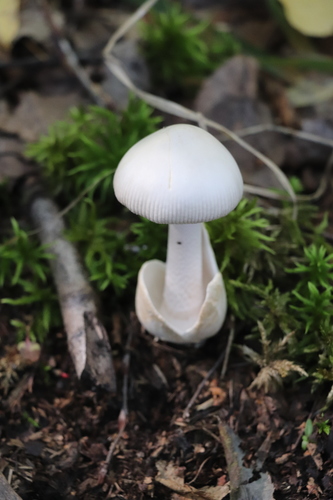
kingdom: Fungi
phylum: Basidiomycota
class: Agaricomycetes
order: Agaricales
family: Amanitaceae
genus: Amanita
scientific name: Amanita vaginata
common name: Grisette
